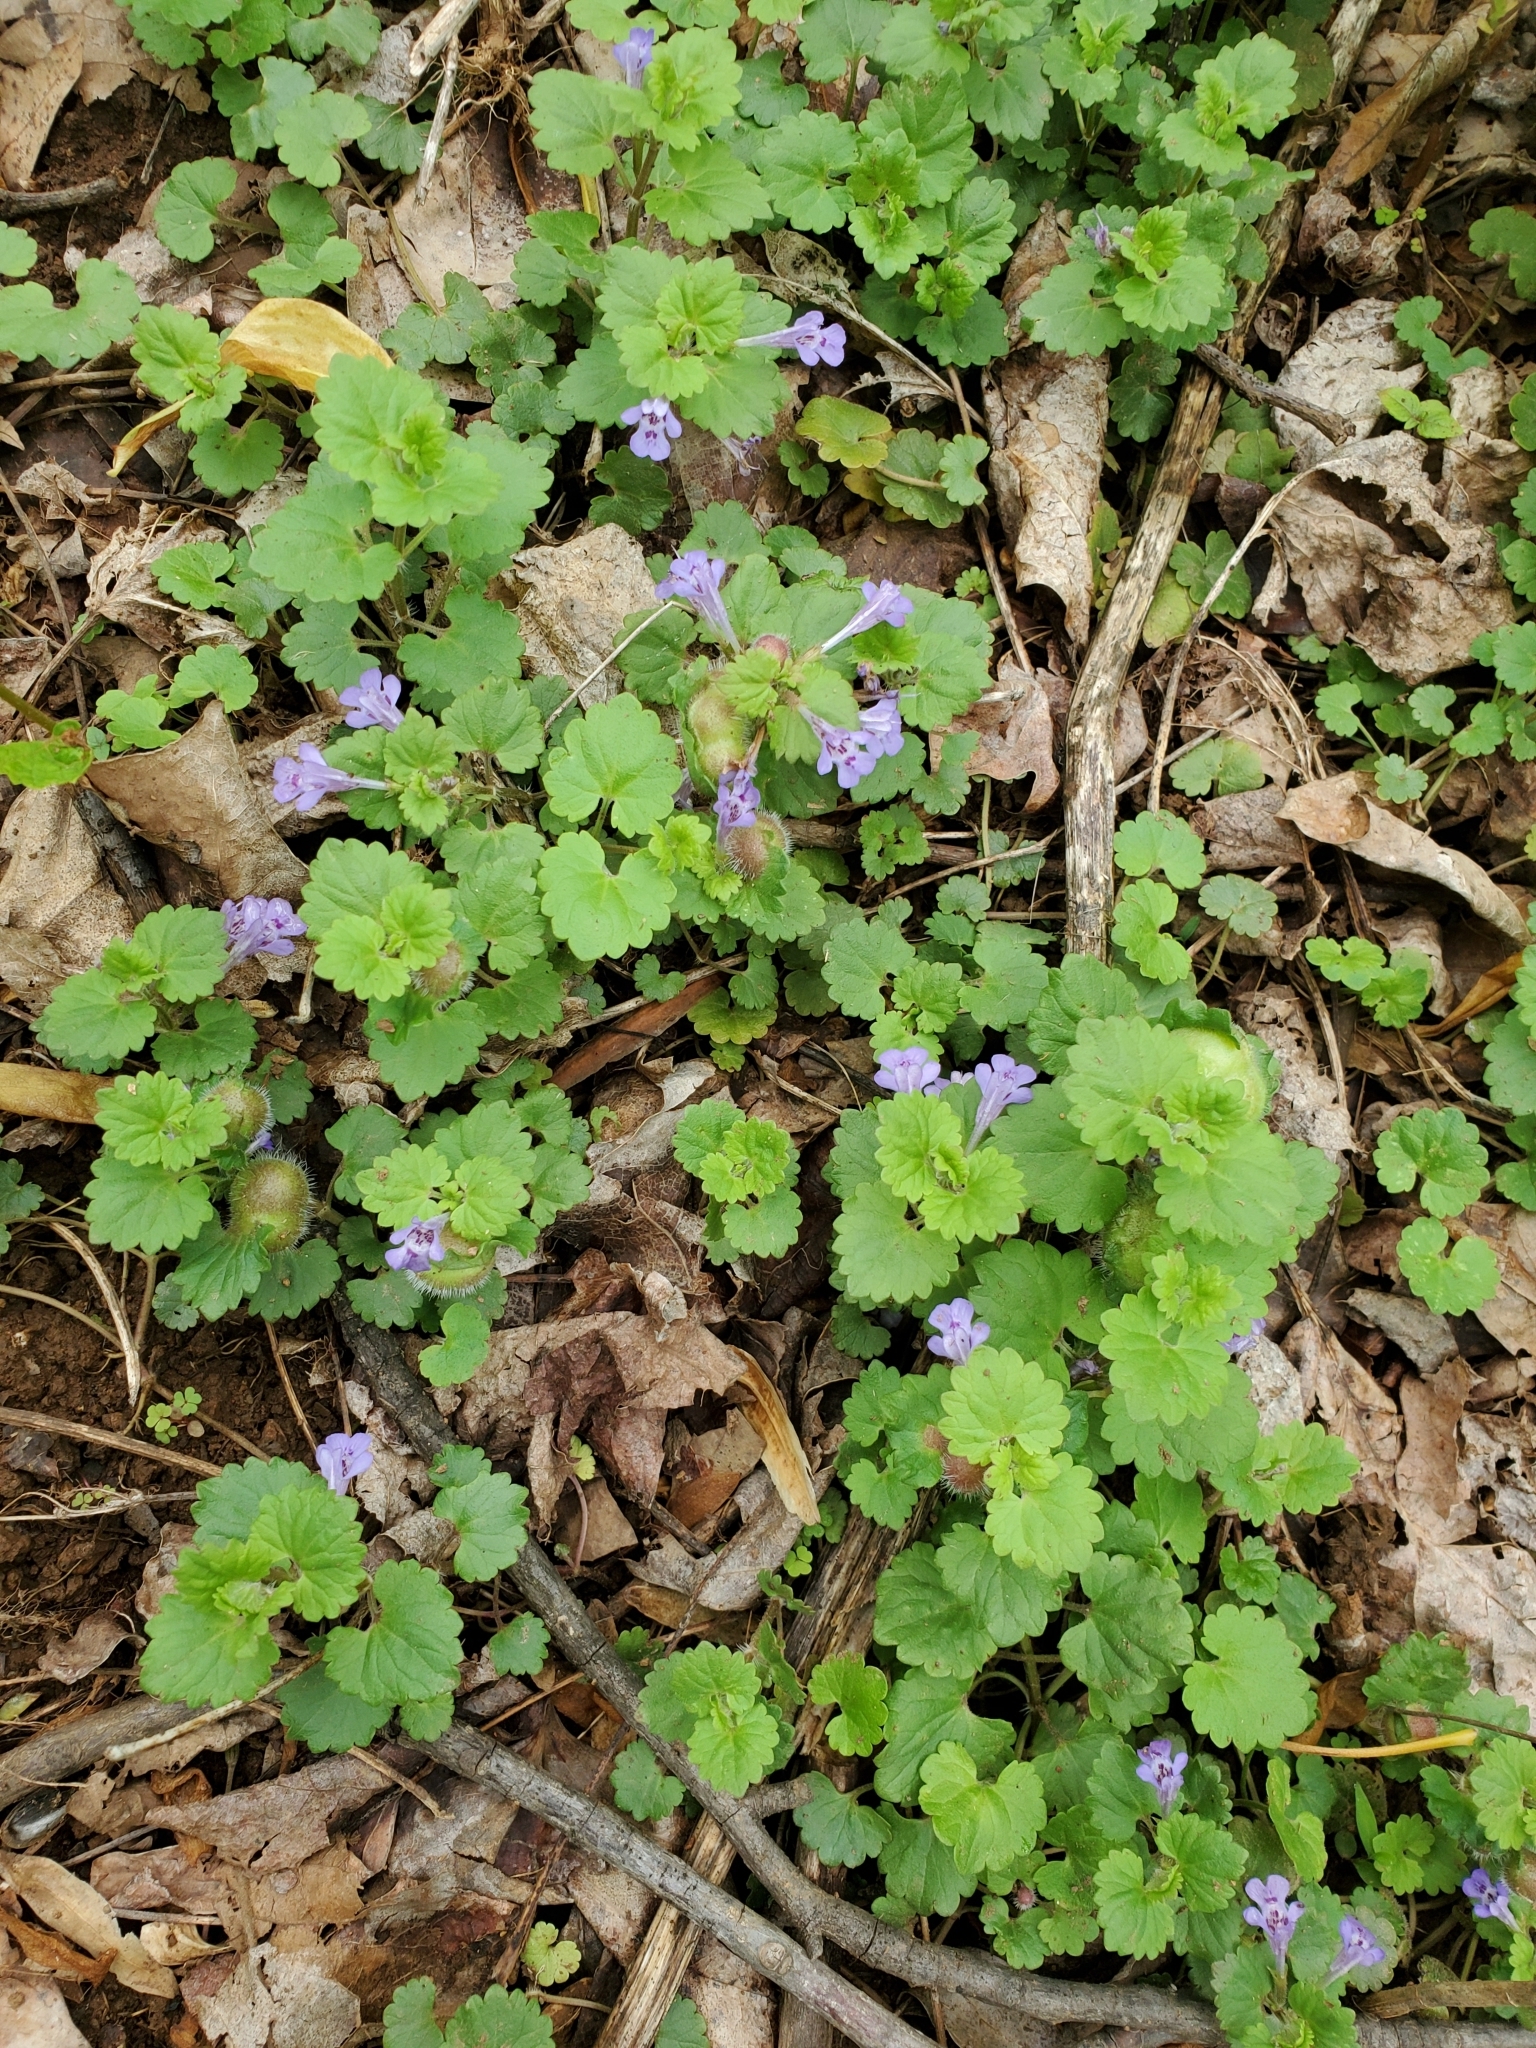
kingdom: Plantae
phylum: Tracheophyta
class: Magnoliopsida
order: Lamiales
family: Lamiaceae
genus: Glechoma
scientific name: Glechoma hederacea
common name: Ground ivy
